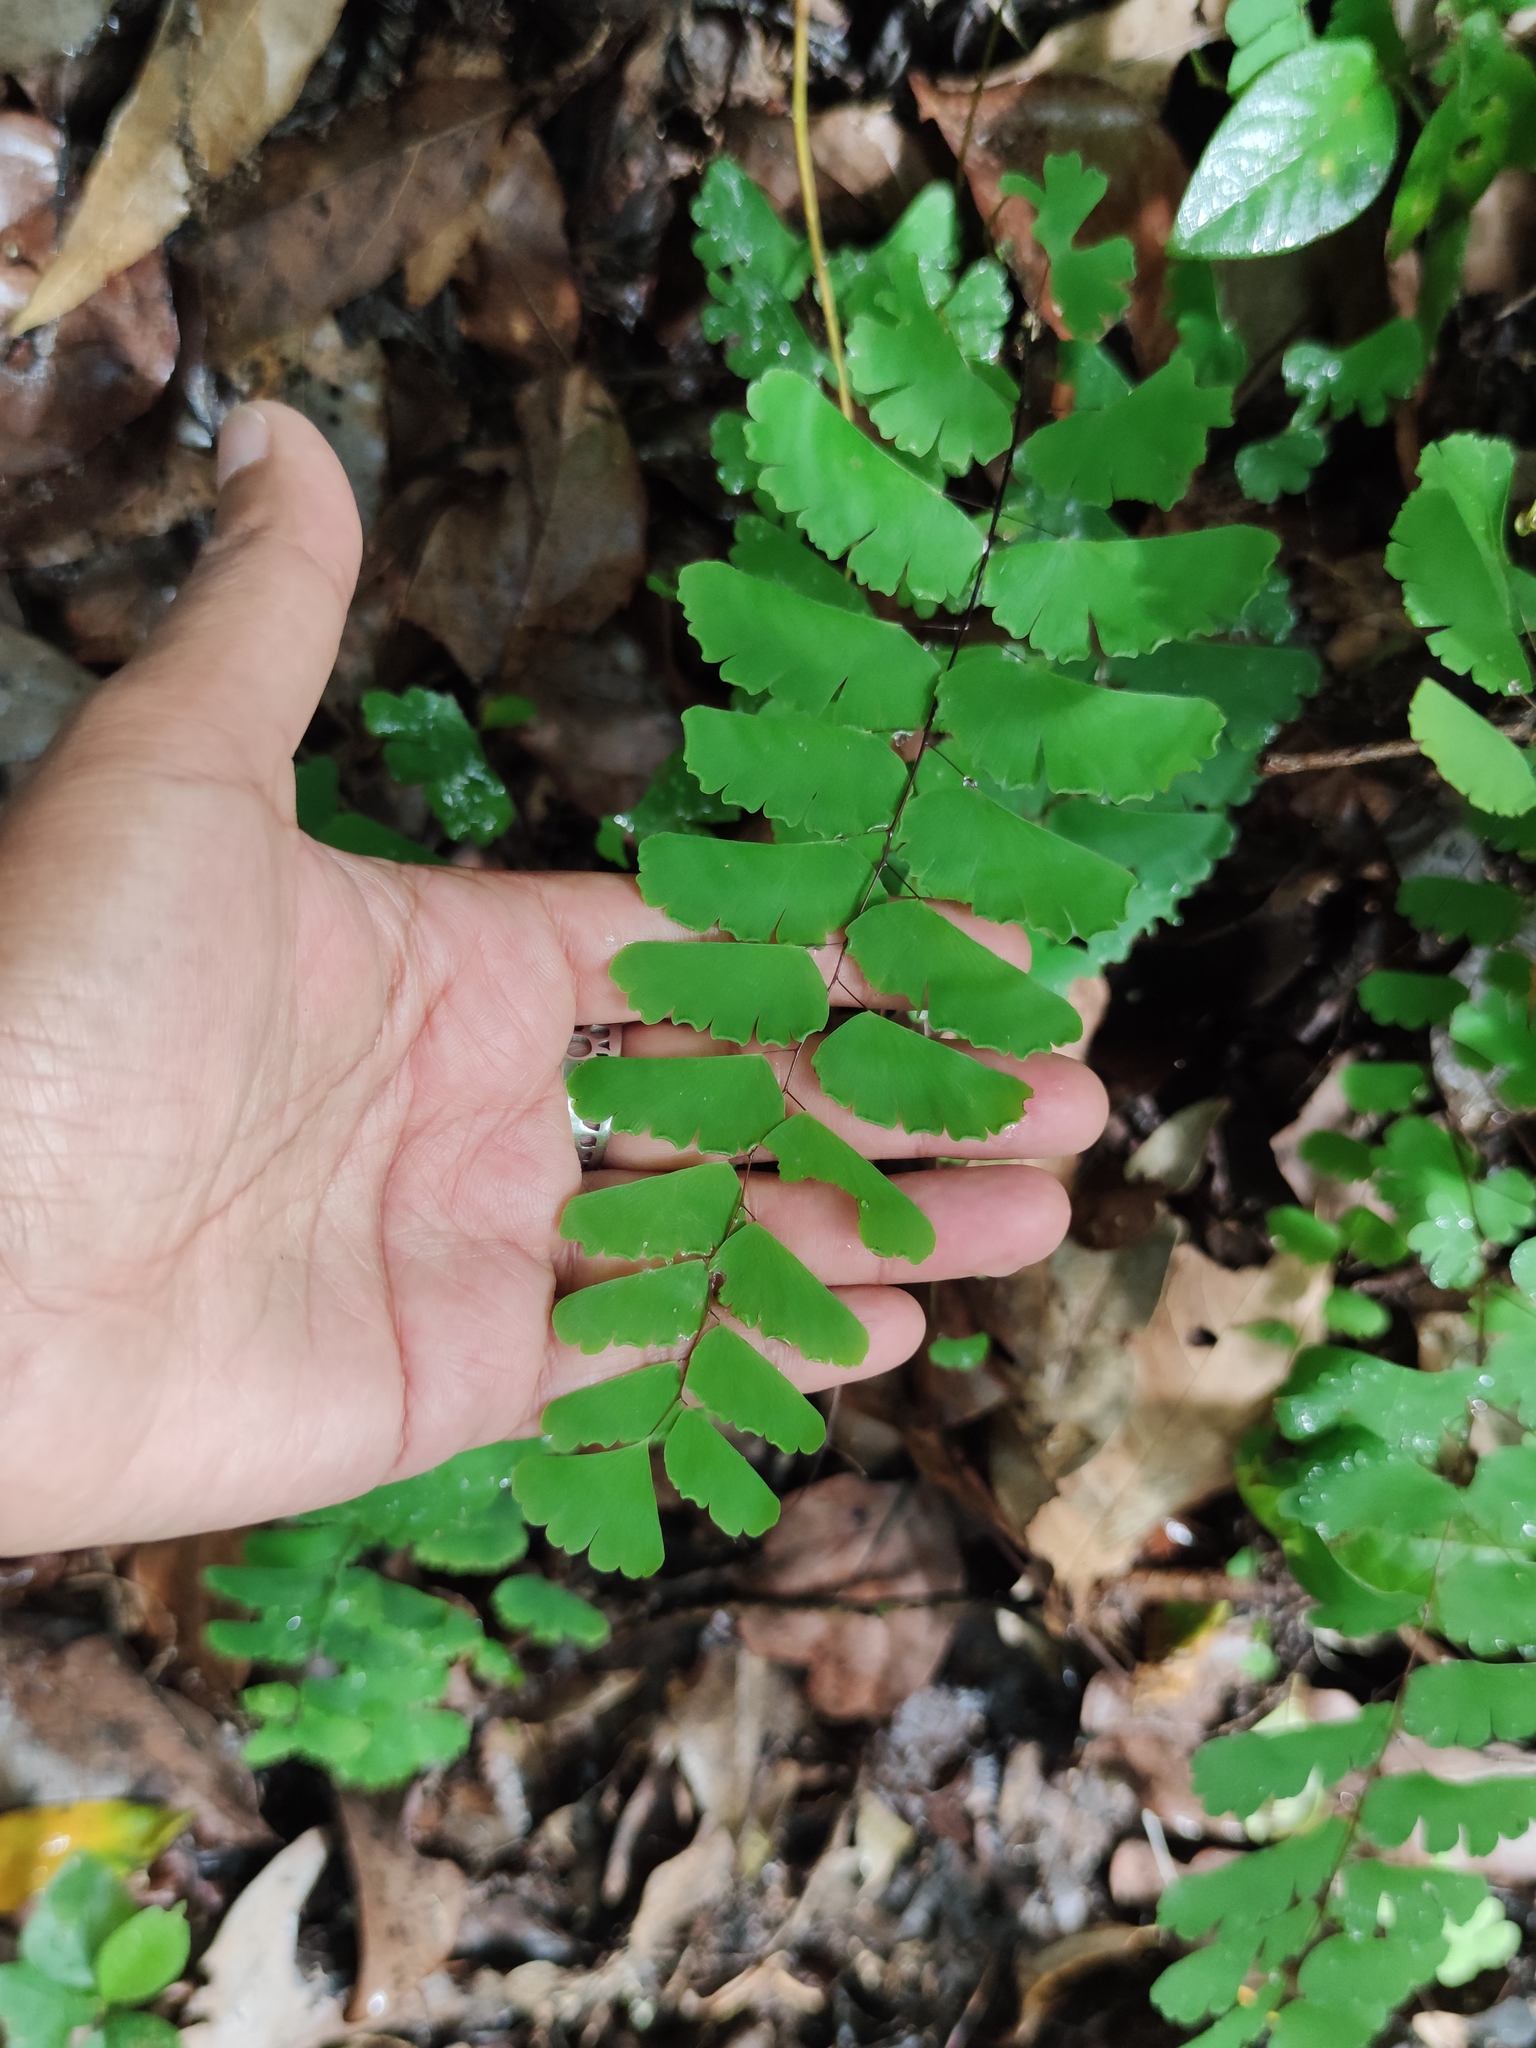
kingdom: Plantae
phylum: Tracheophyta
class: Polypodiopsida
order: Polypodiales
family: Pteridaceae
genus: Adiantum
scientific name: Adiantum philippense
